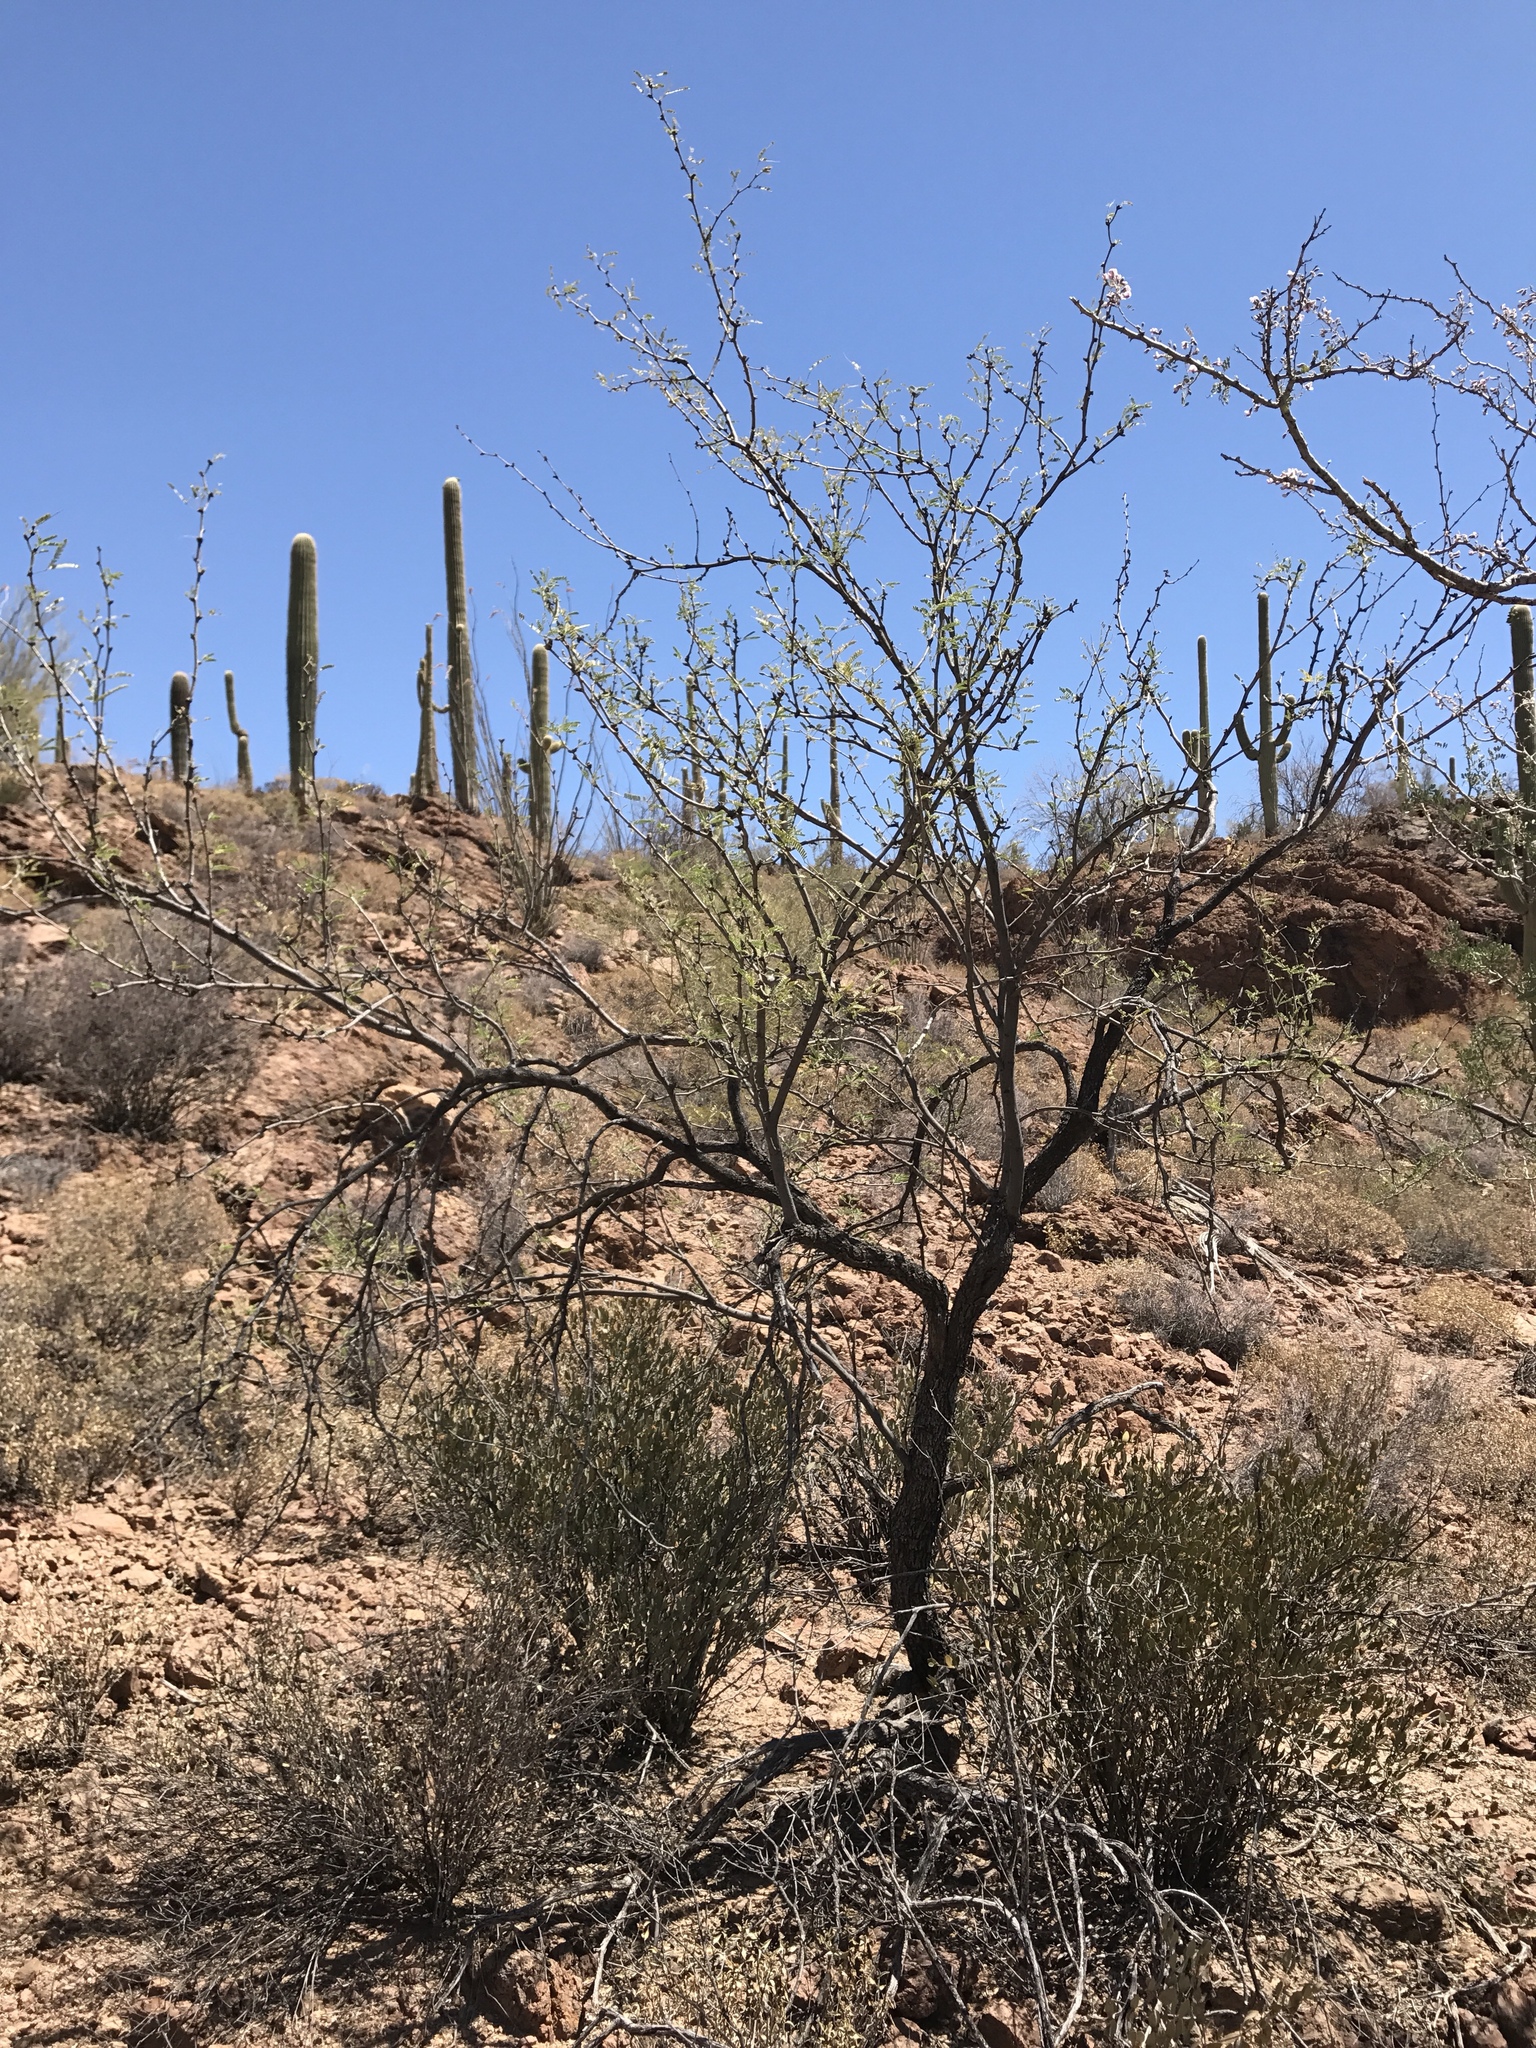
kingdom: Plantae
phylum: Tracheophyta
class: Magnoliopsida
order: Fabales
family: Fabaceae
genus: Prosopis
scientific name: Prosopis velutina
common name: Velvet mesquite
